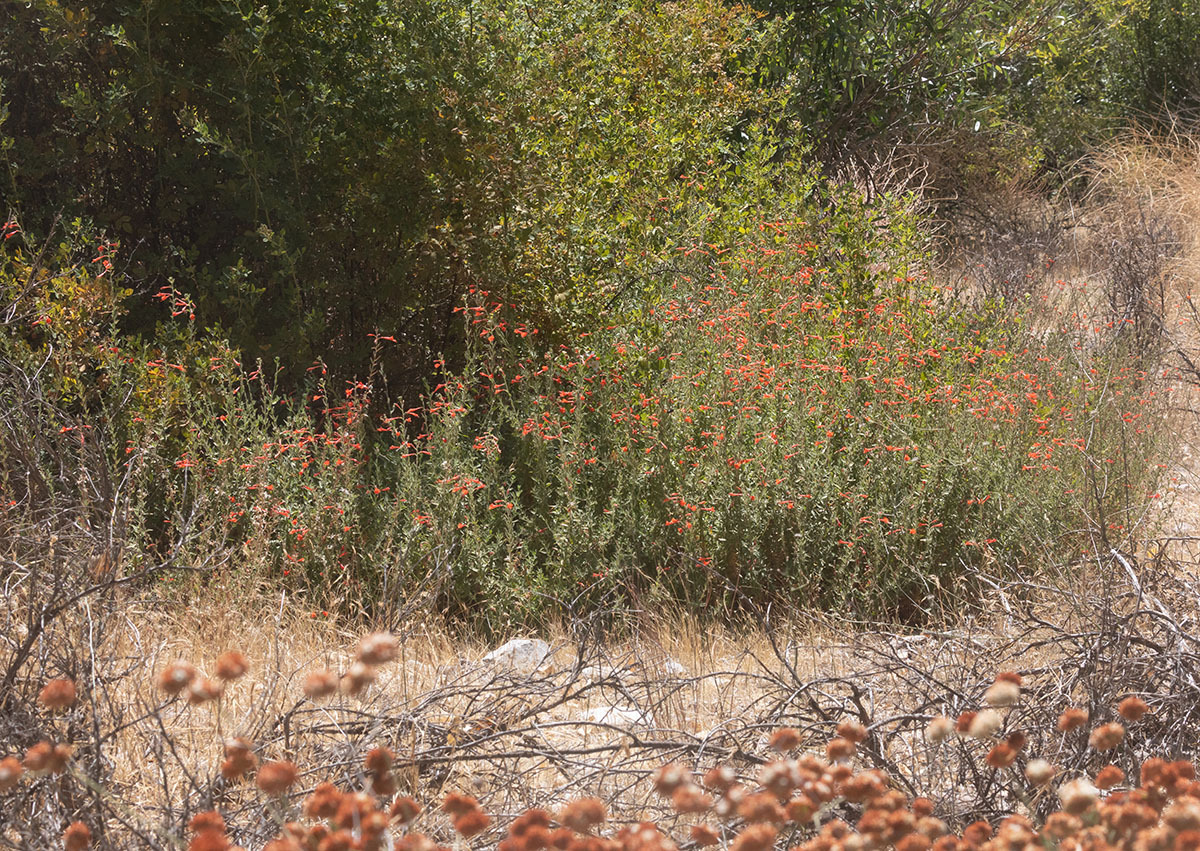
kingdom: Plantae
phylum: Tracheophyta
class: Magnoliopsida
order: Myrtales
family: Onagraceae
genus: Epilobium
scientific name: Epilobium canum
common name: California-fuchsia
